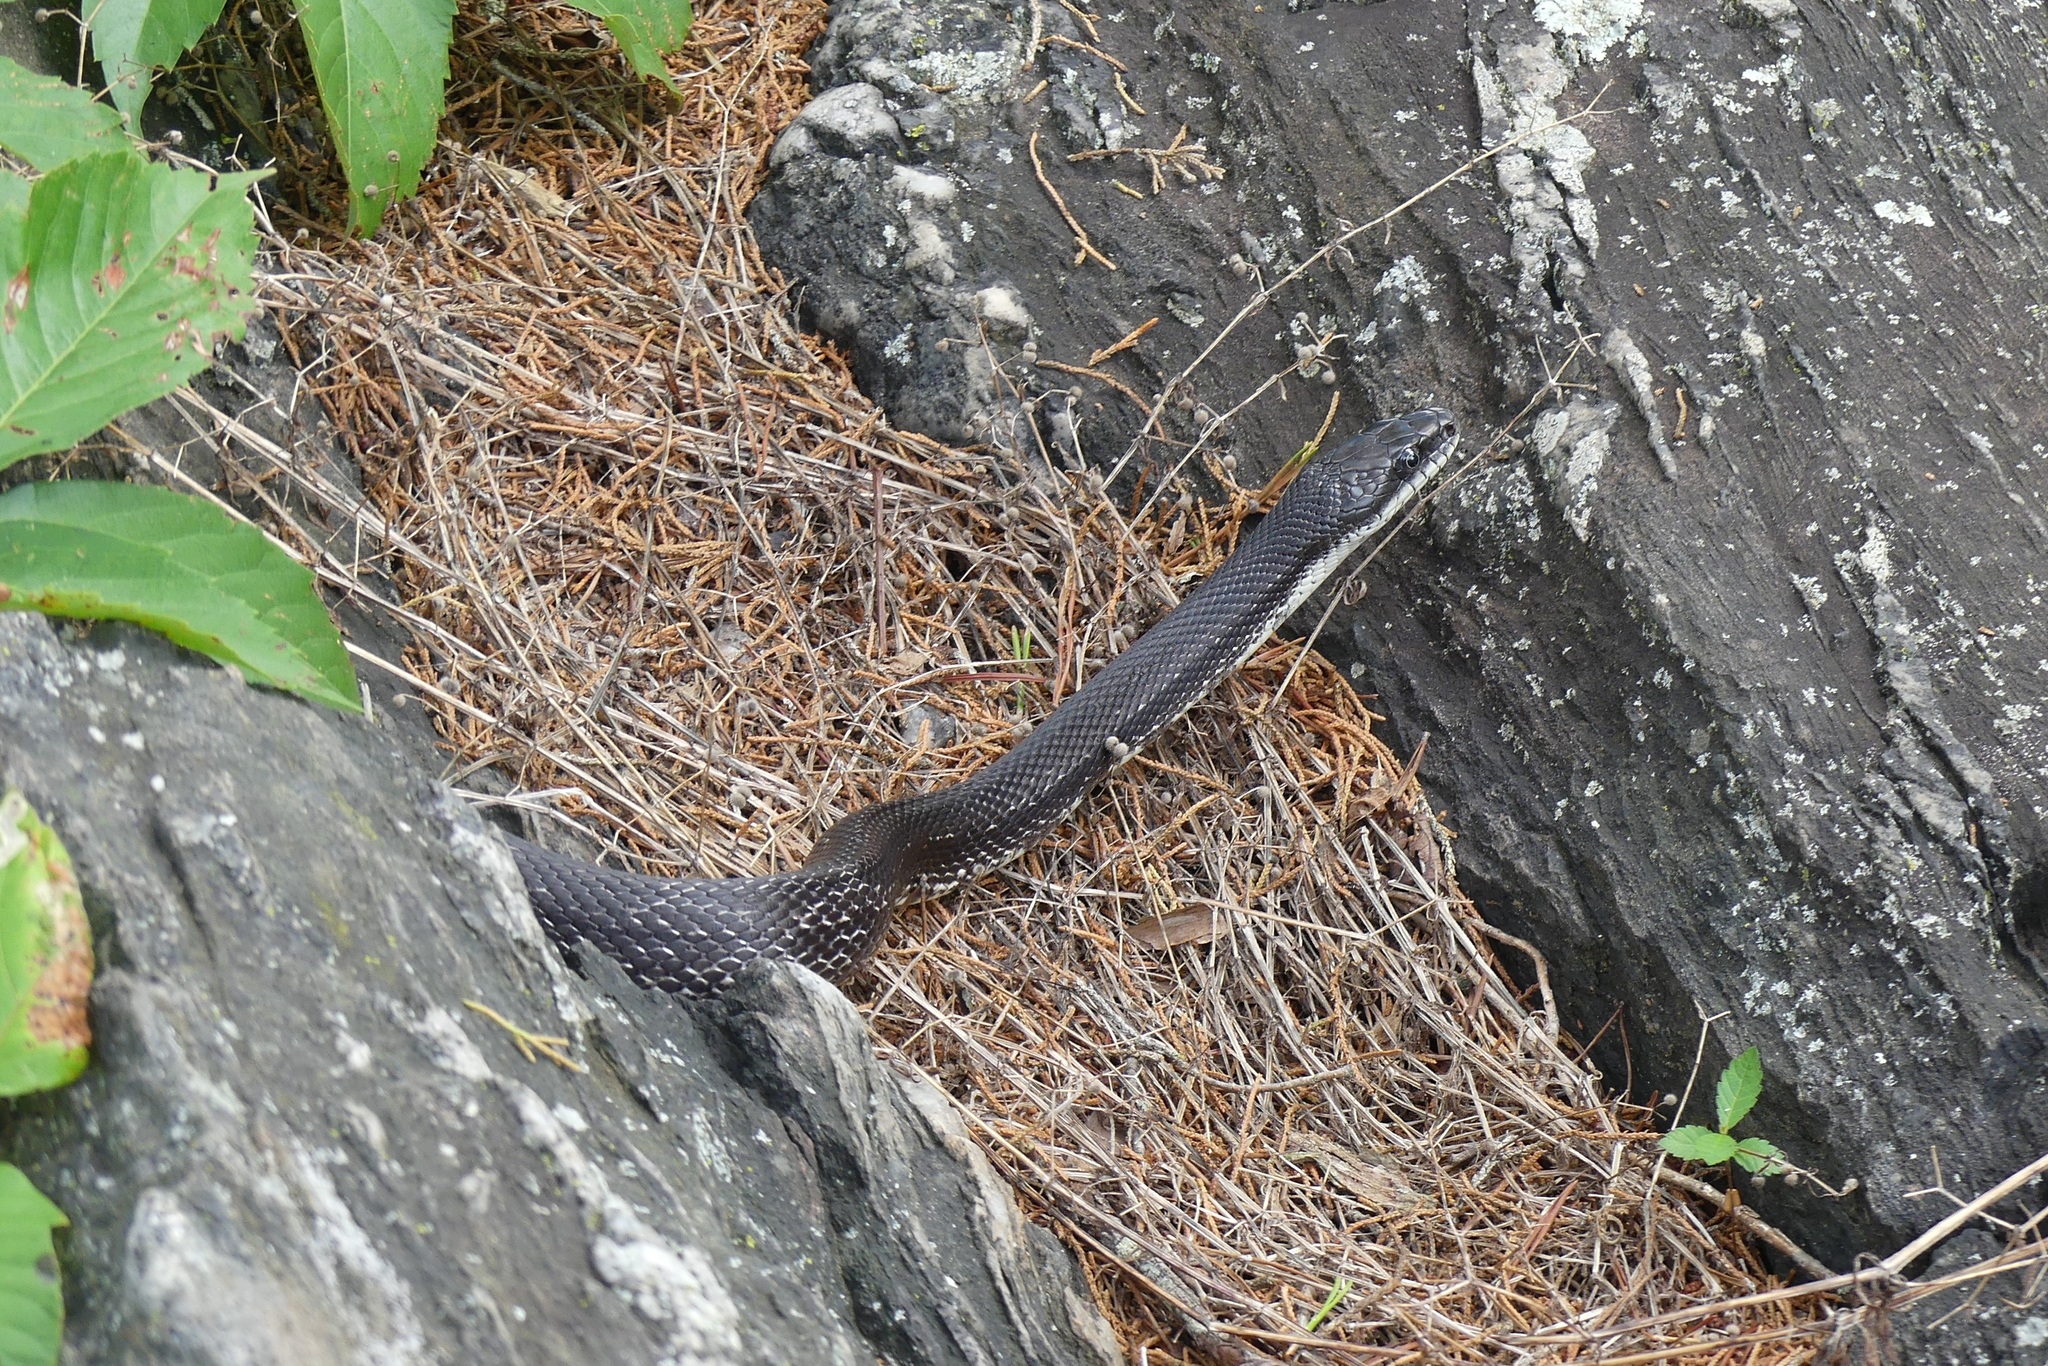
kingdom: Animalia
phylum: Chordata
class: Squamata
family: Colubridae
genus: Pantherophis
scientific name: Pantherophis alleghaniensis
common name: Eastern rat snake
